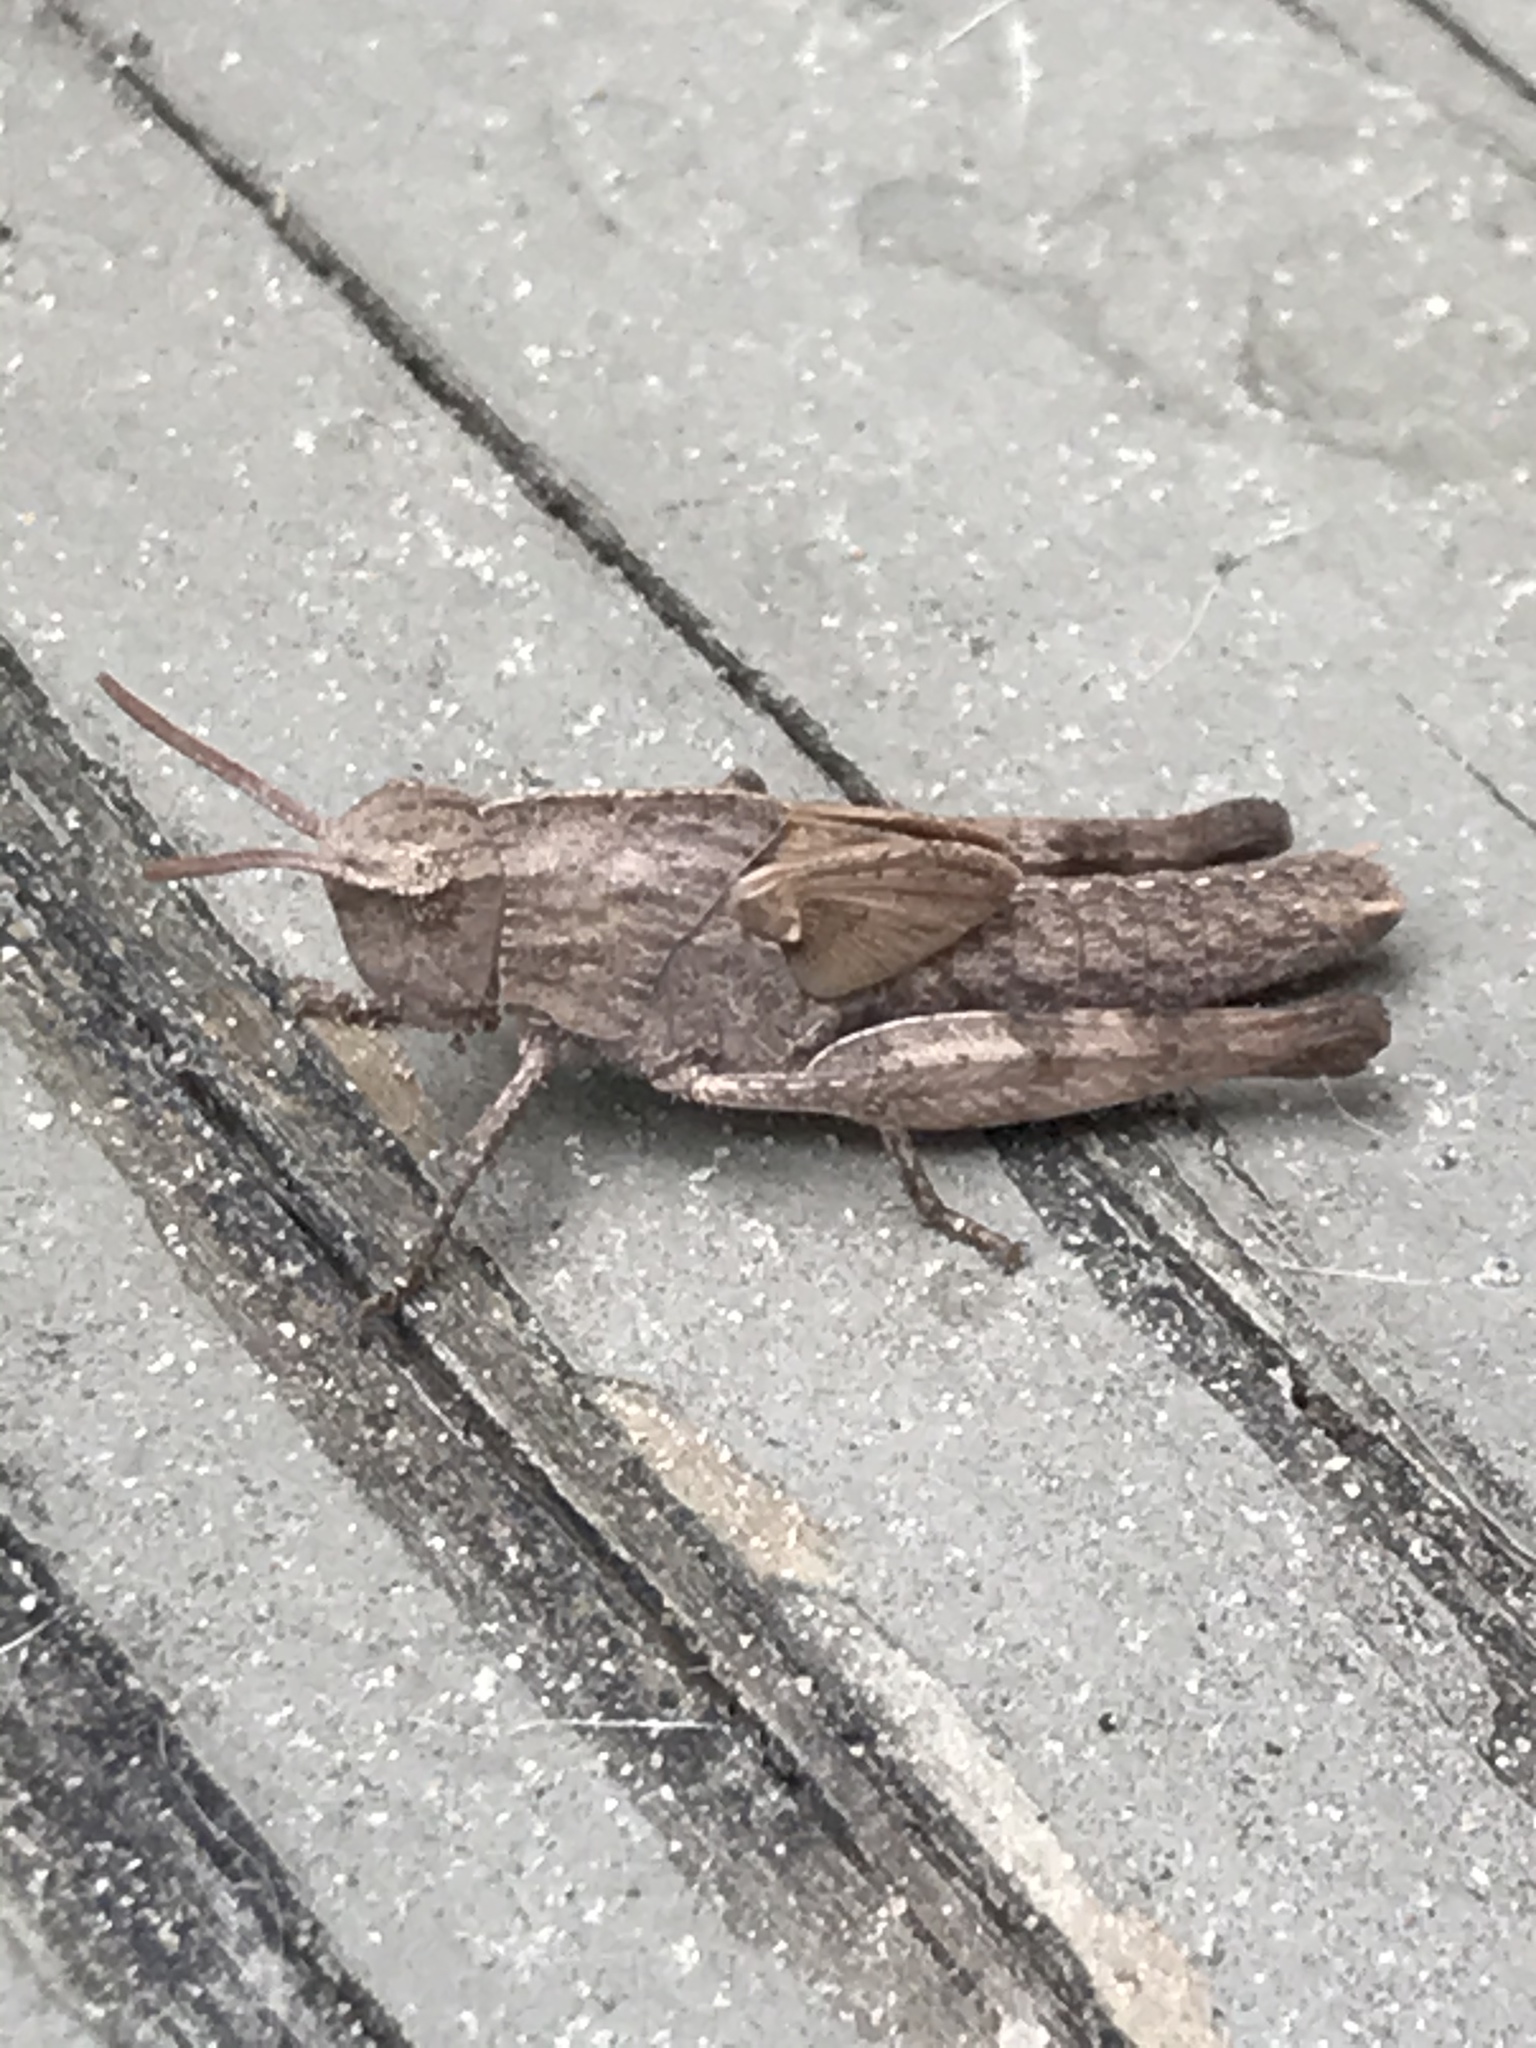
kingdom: Animalia
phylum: Arthropoda
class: Insecta
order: Orthoptera
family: Acrididae
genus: Chortophaga
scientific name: Chortophaga viridifasciata
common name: Green-striped grasshopper
